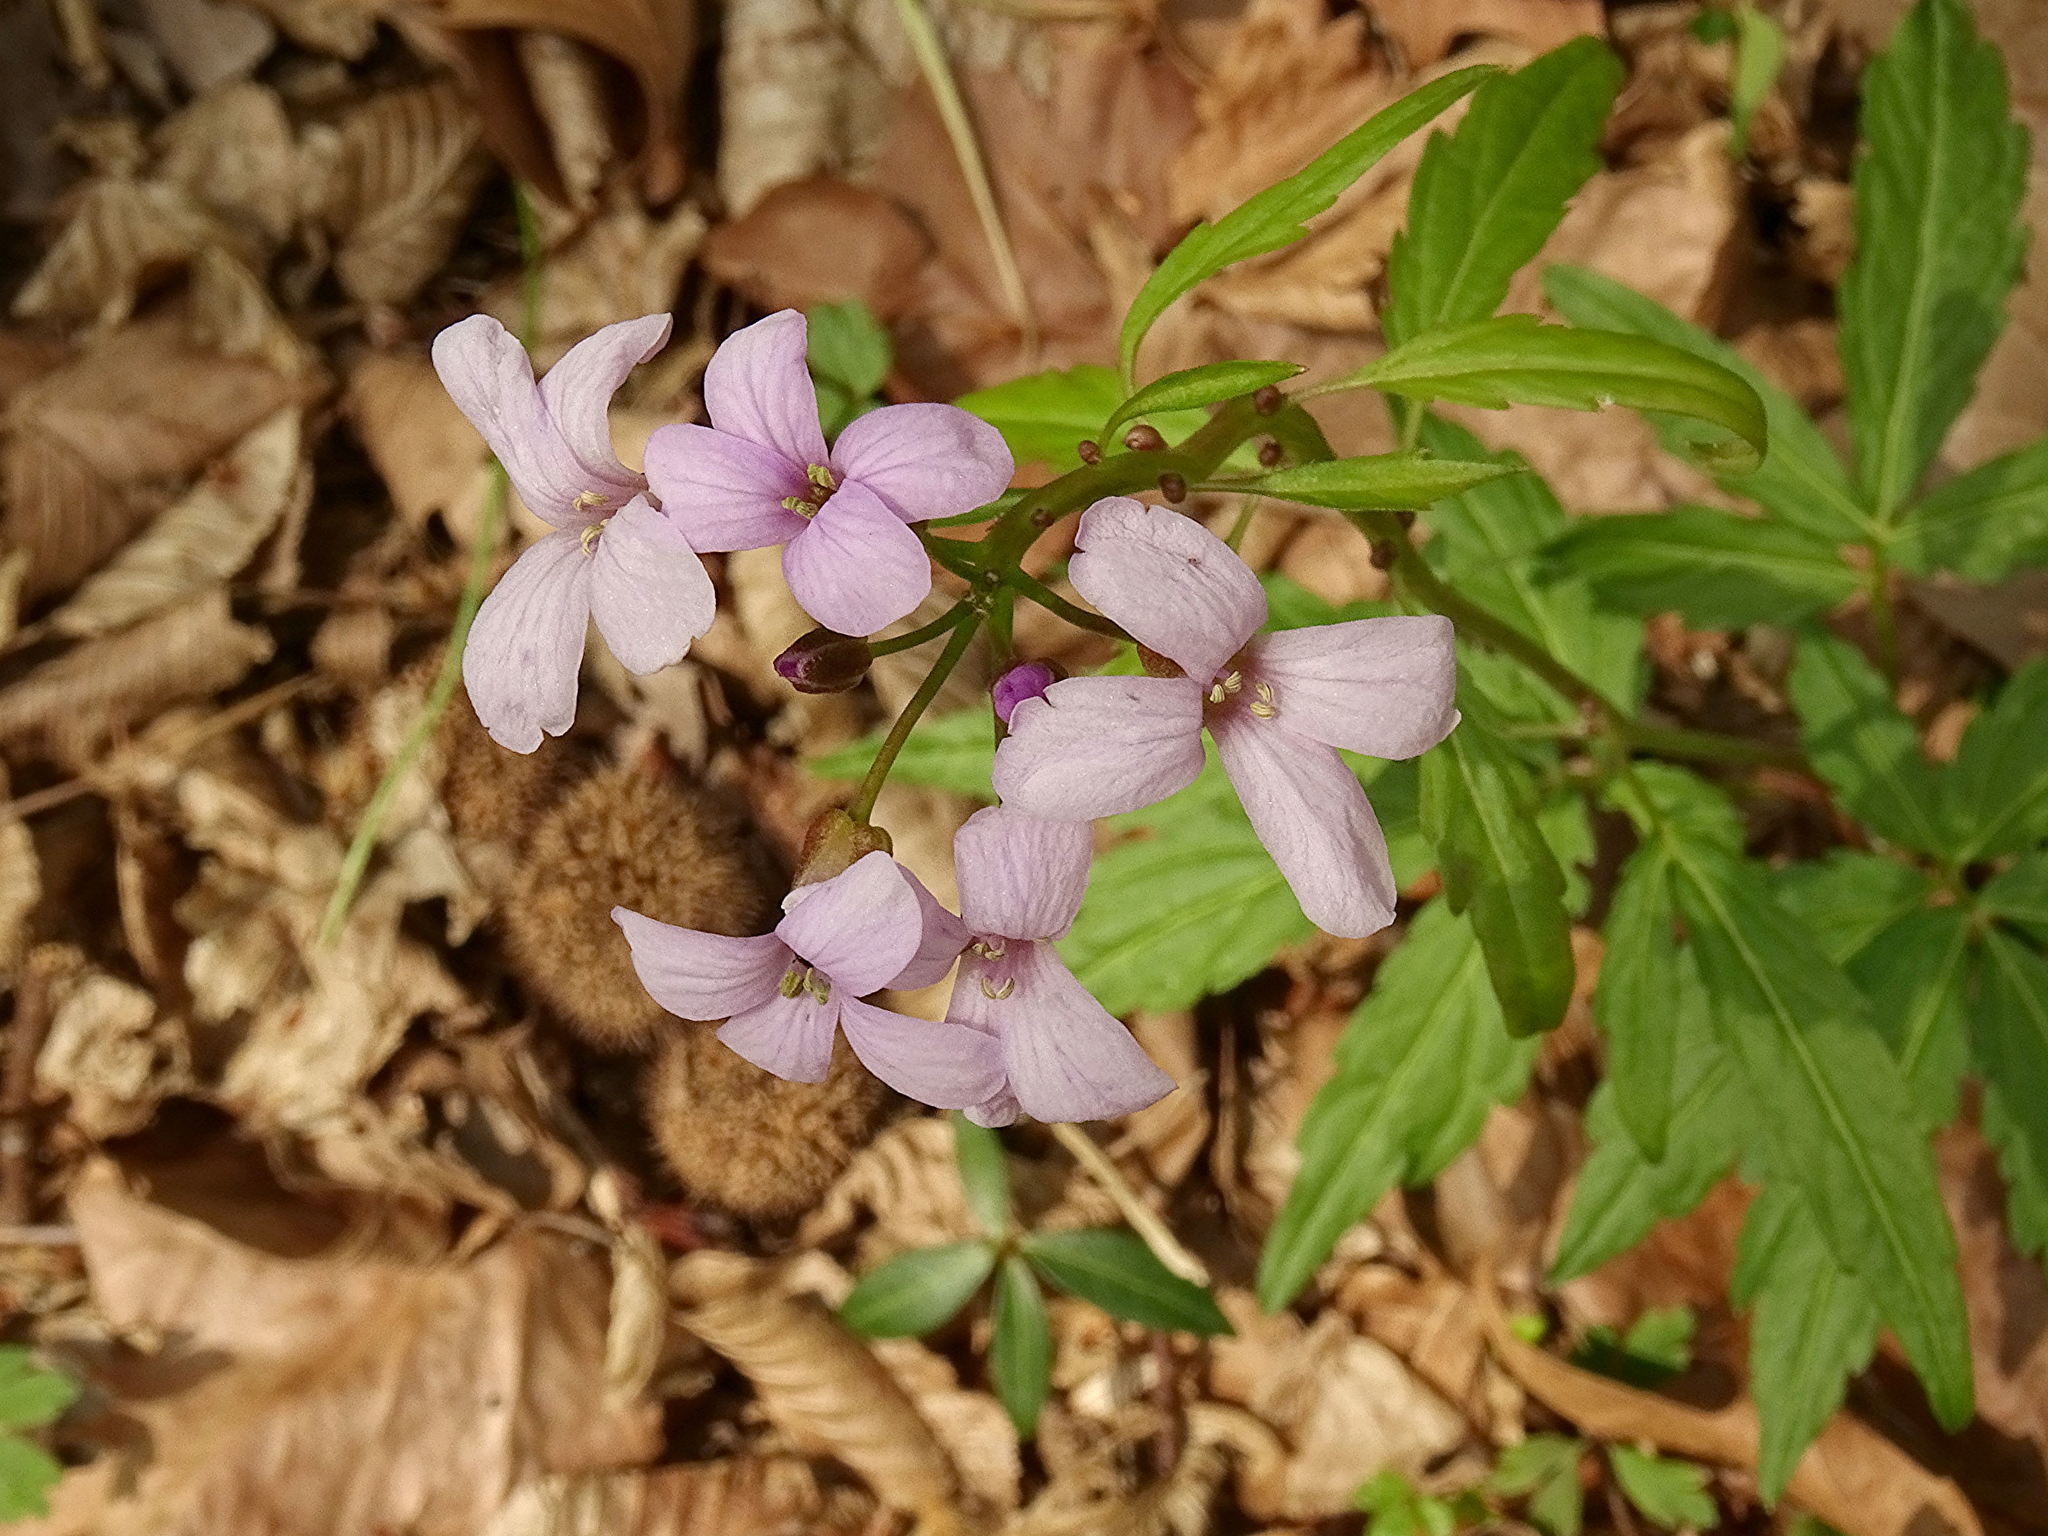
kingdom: Plantae
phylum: Tracheophyta
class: Magnoliopsida
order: Brassicales
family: Brassicaceae
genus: Cardamine
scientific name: Cardamine bulbifera
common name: Coralroot bittercress
